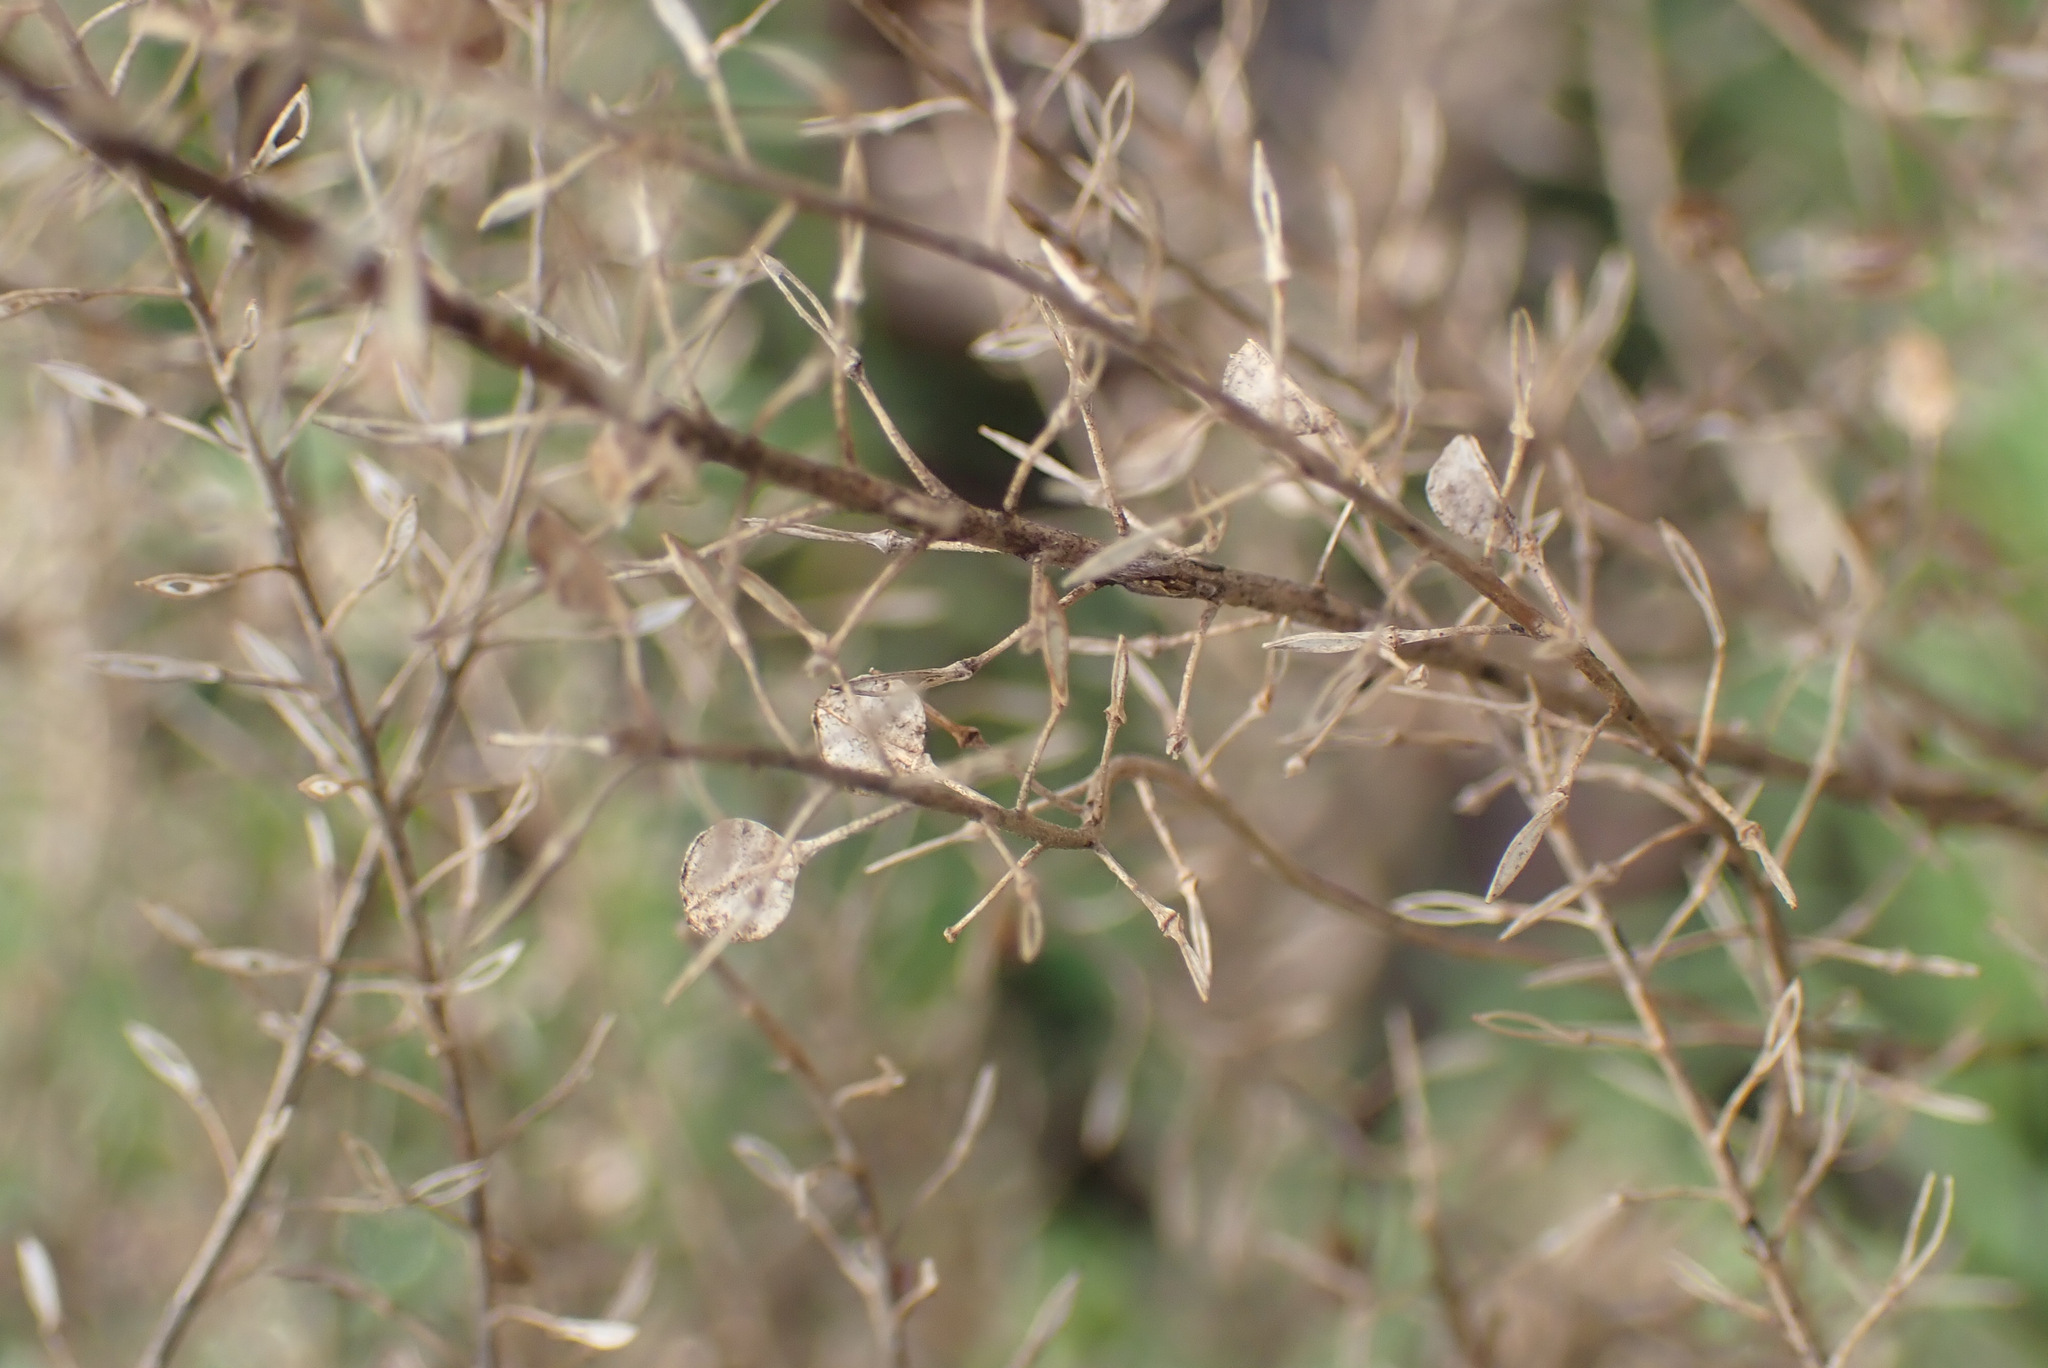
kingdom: Plantae
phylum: Tracheophyta
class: Magnoliopsida
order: Brassicales
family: Brassicaceae
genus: Lepidium
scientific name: Lepidium virginicum
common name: Least pepperwort
